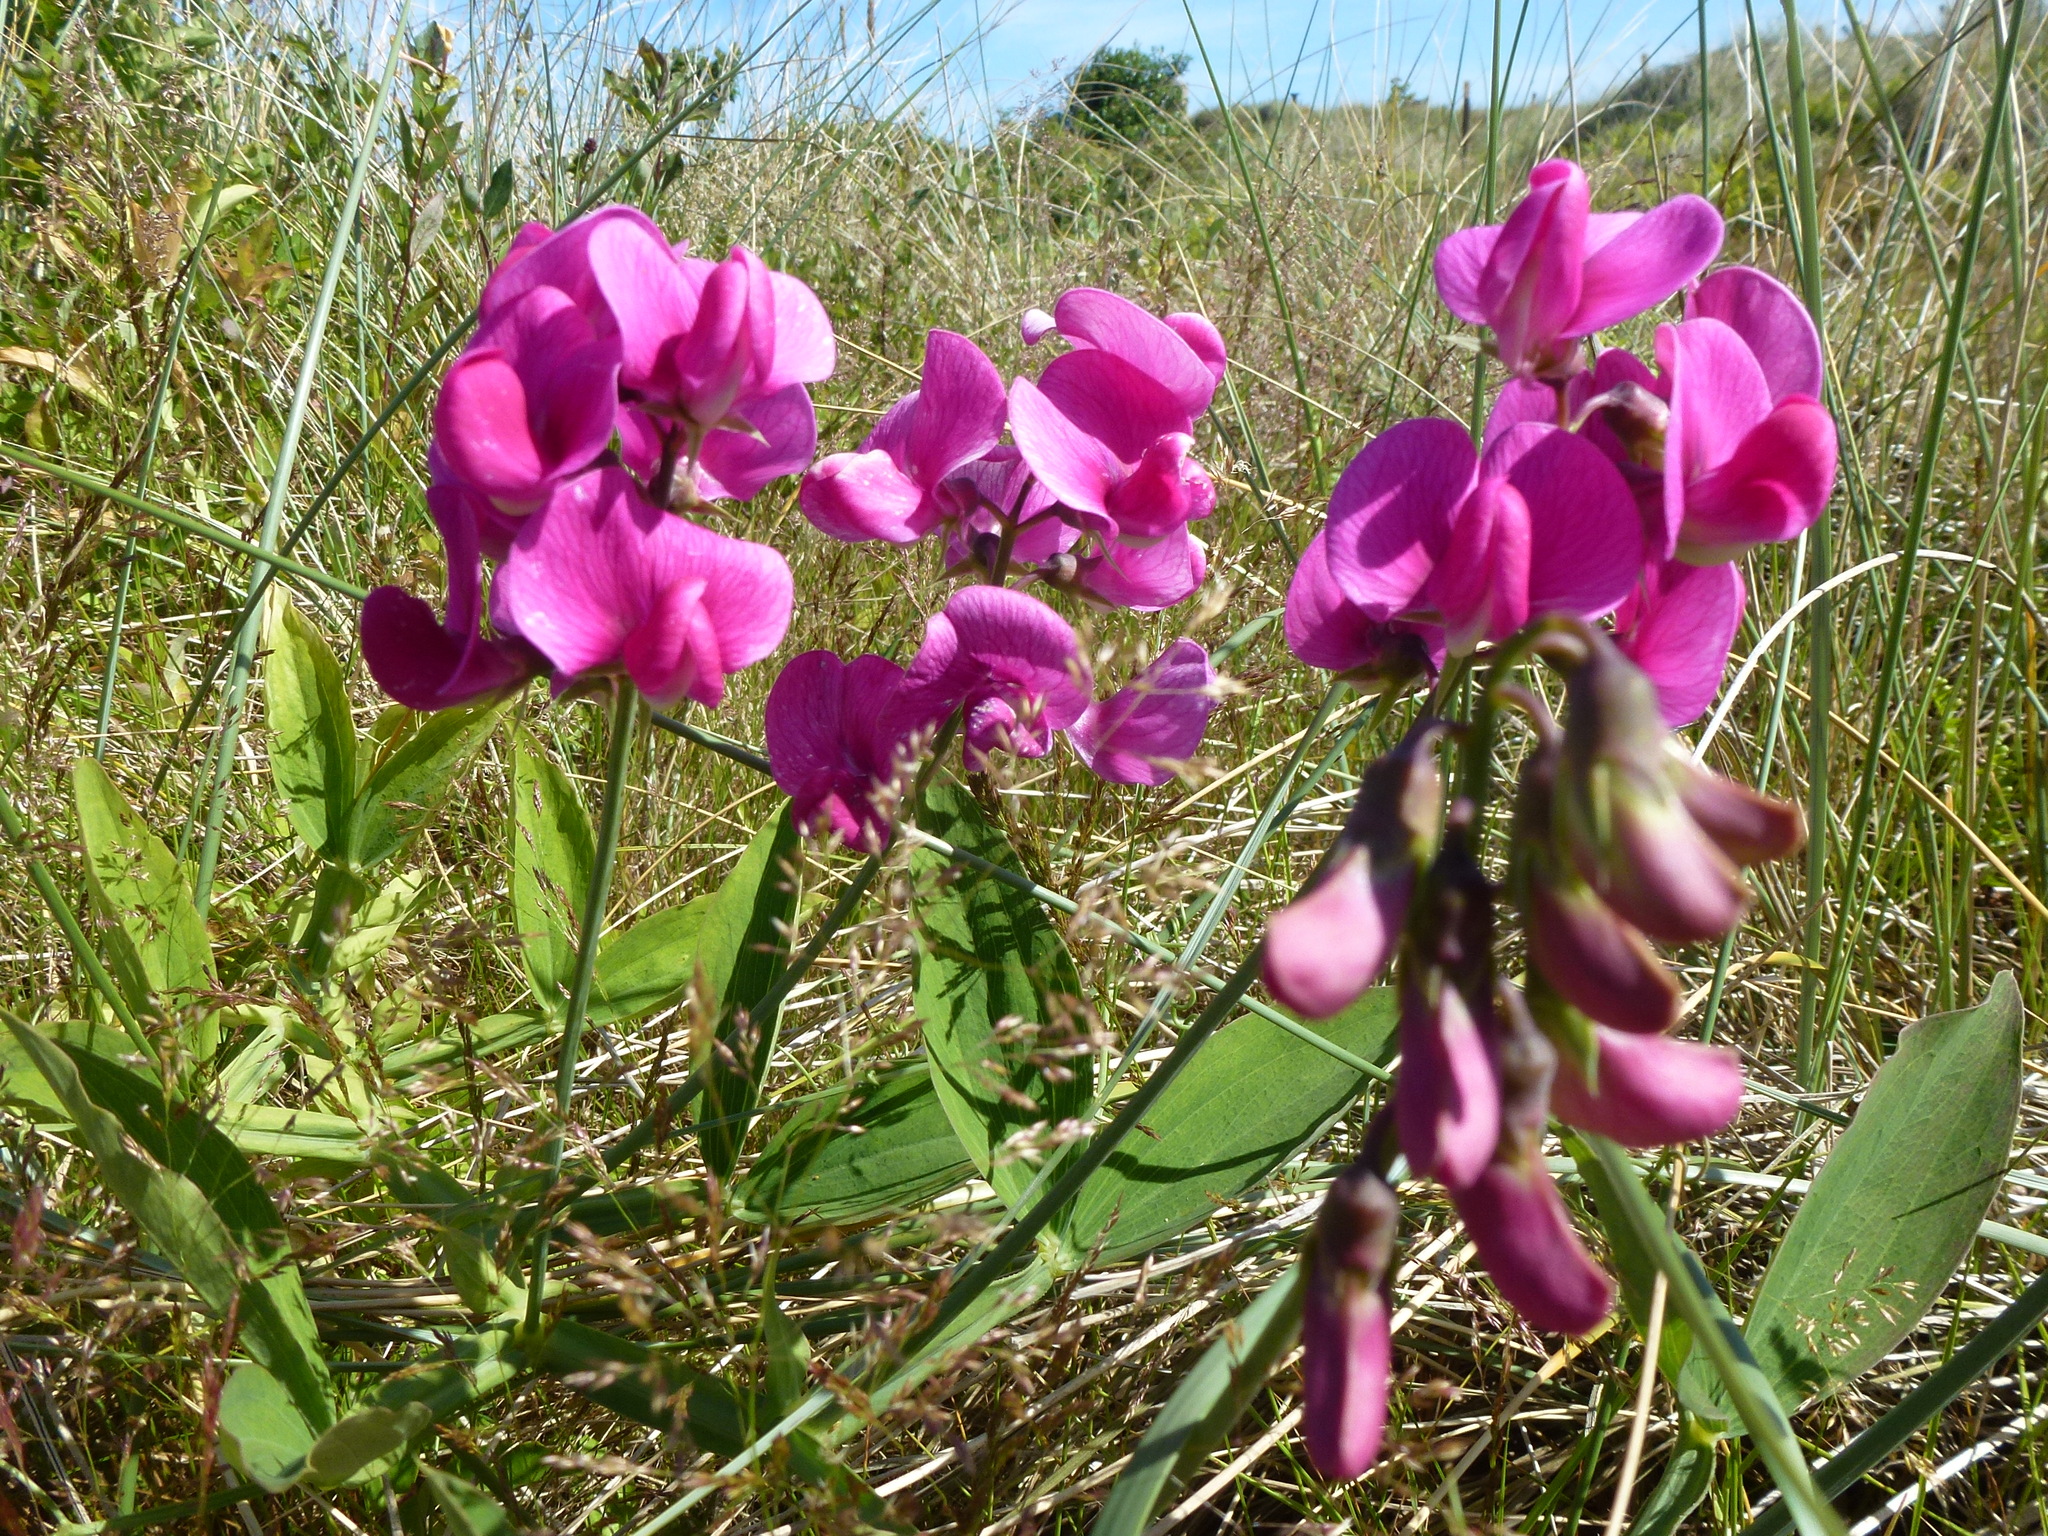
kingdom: Plantae
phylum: Tracheophyta
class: Magnoliopsida
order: Fabales
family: Fabaceae
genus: Lathyrus
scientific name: Lathyrus latifolius
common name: Perennial pea
